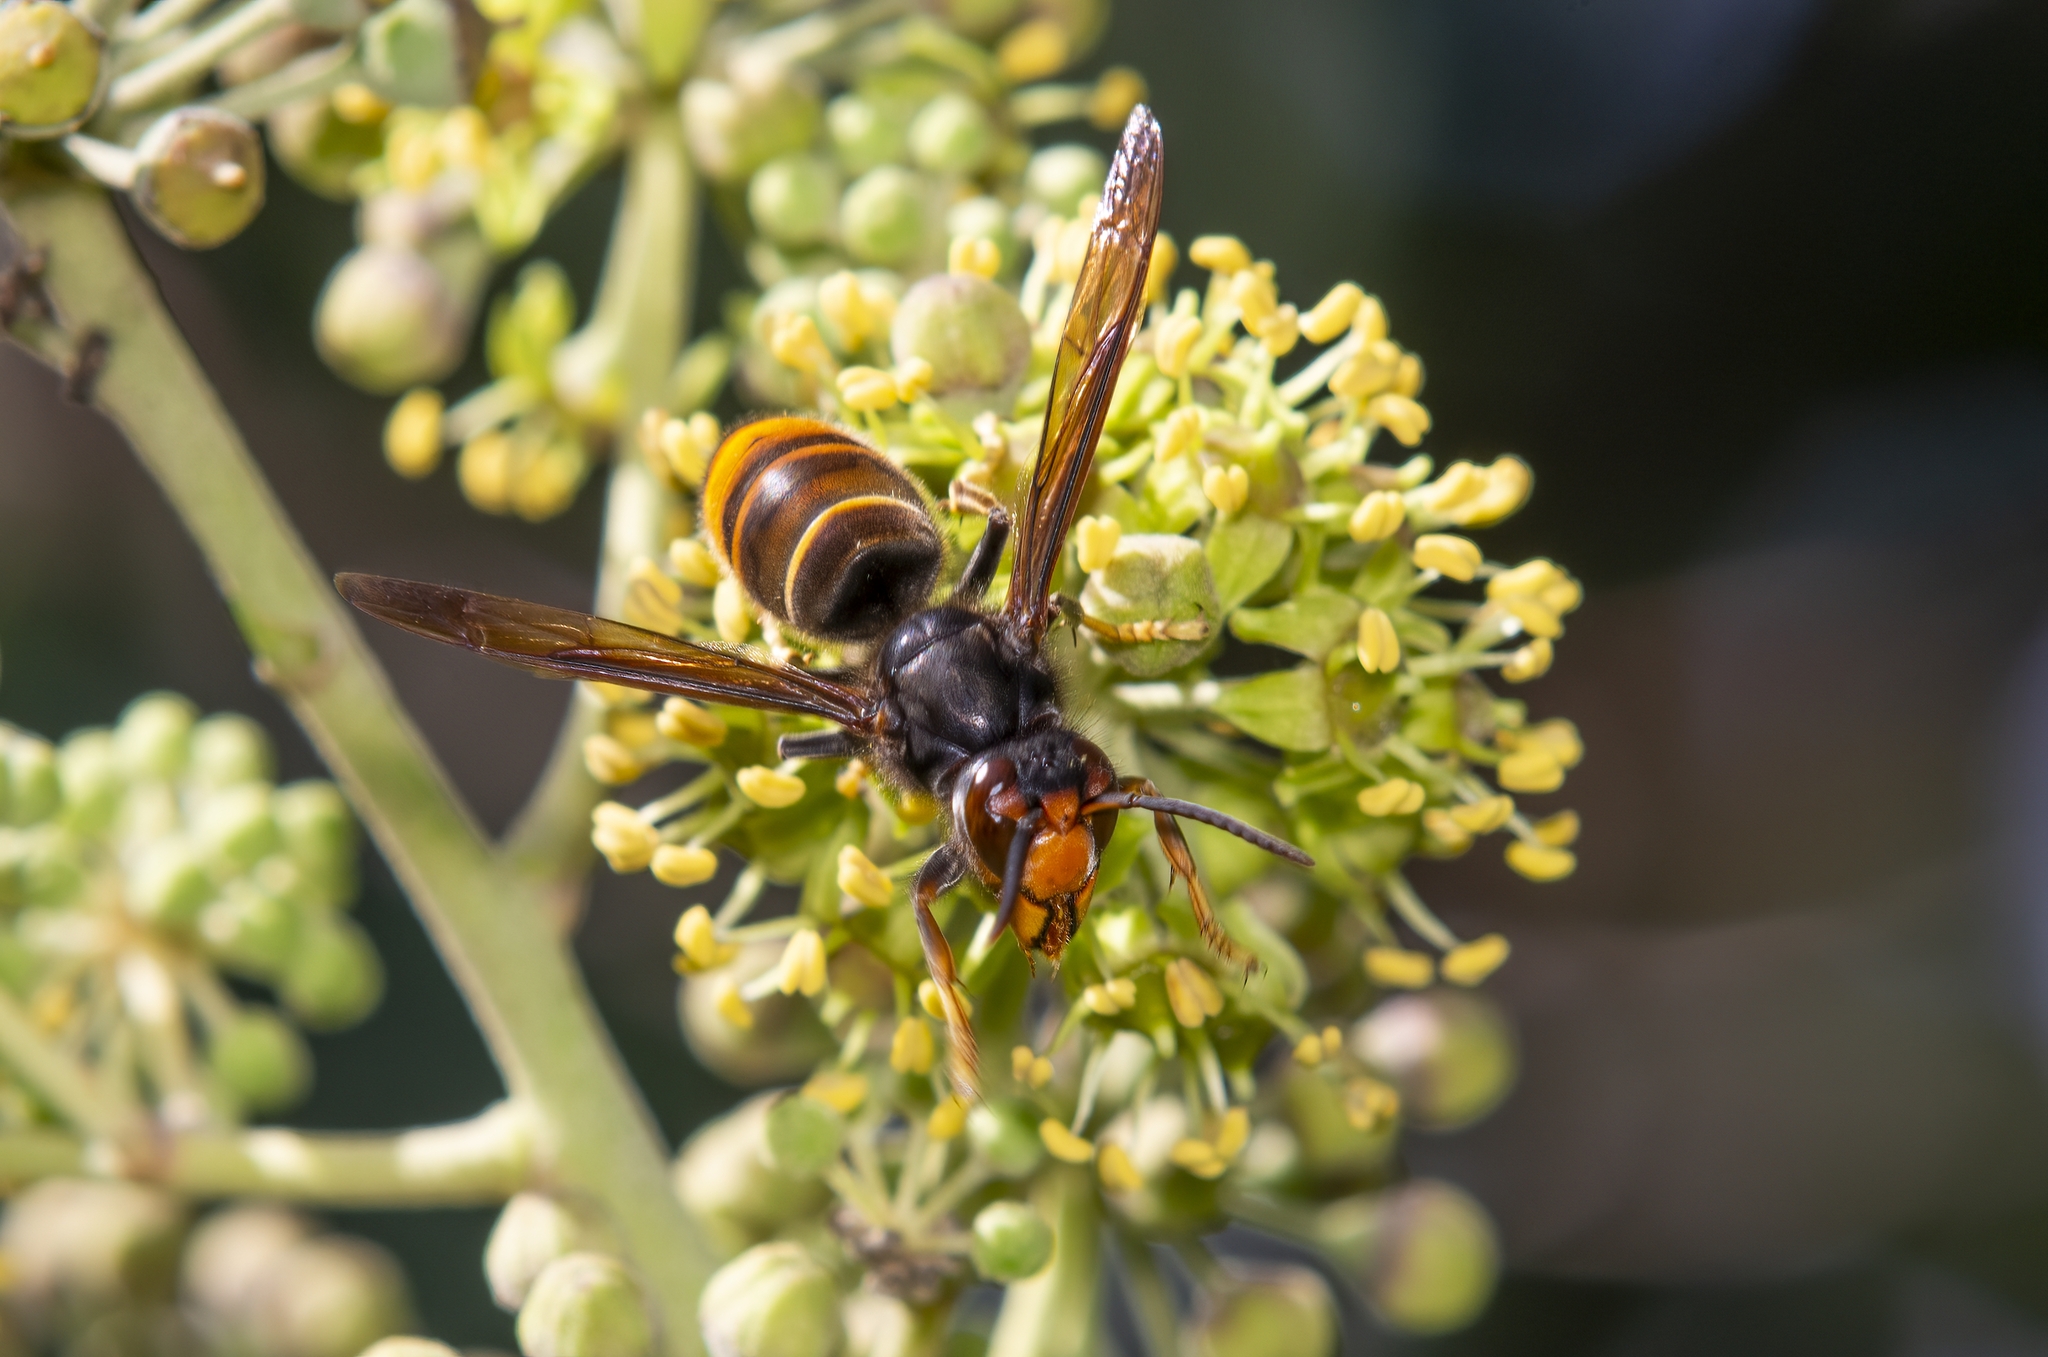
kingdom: Animalia
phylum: Arthropoda
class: Insecta
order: Hymenoptera
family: Vespidae
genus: Vespa
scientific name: Vespa velutina
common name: Asian hornet
